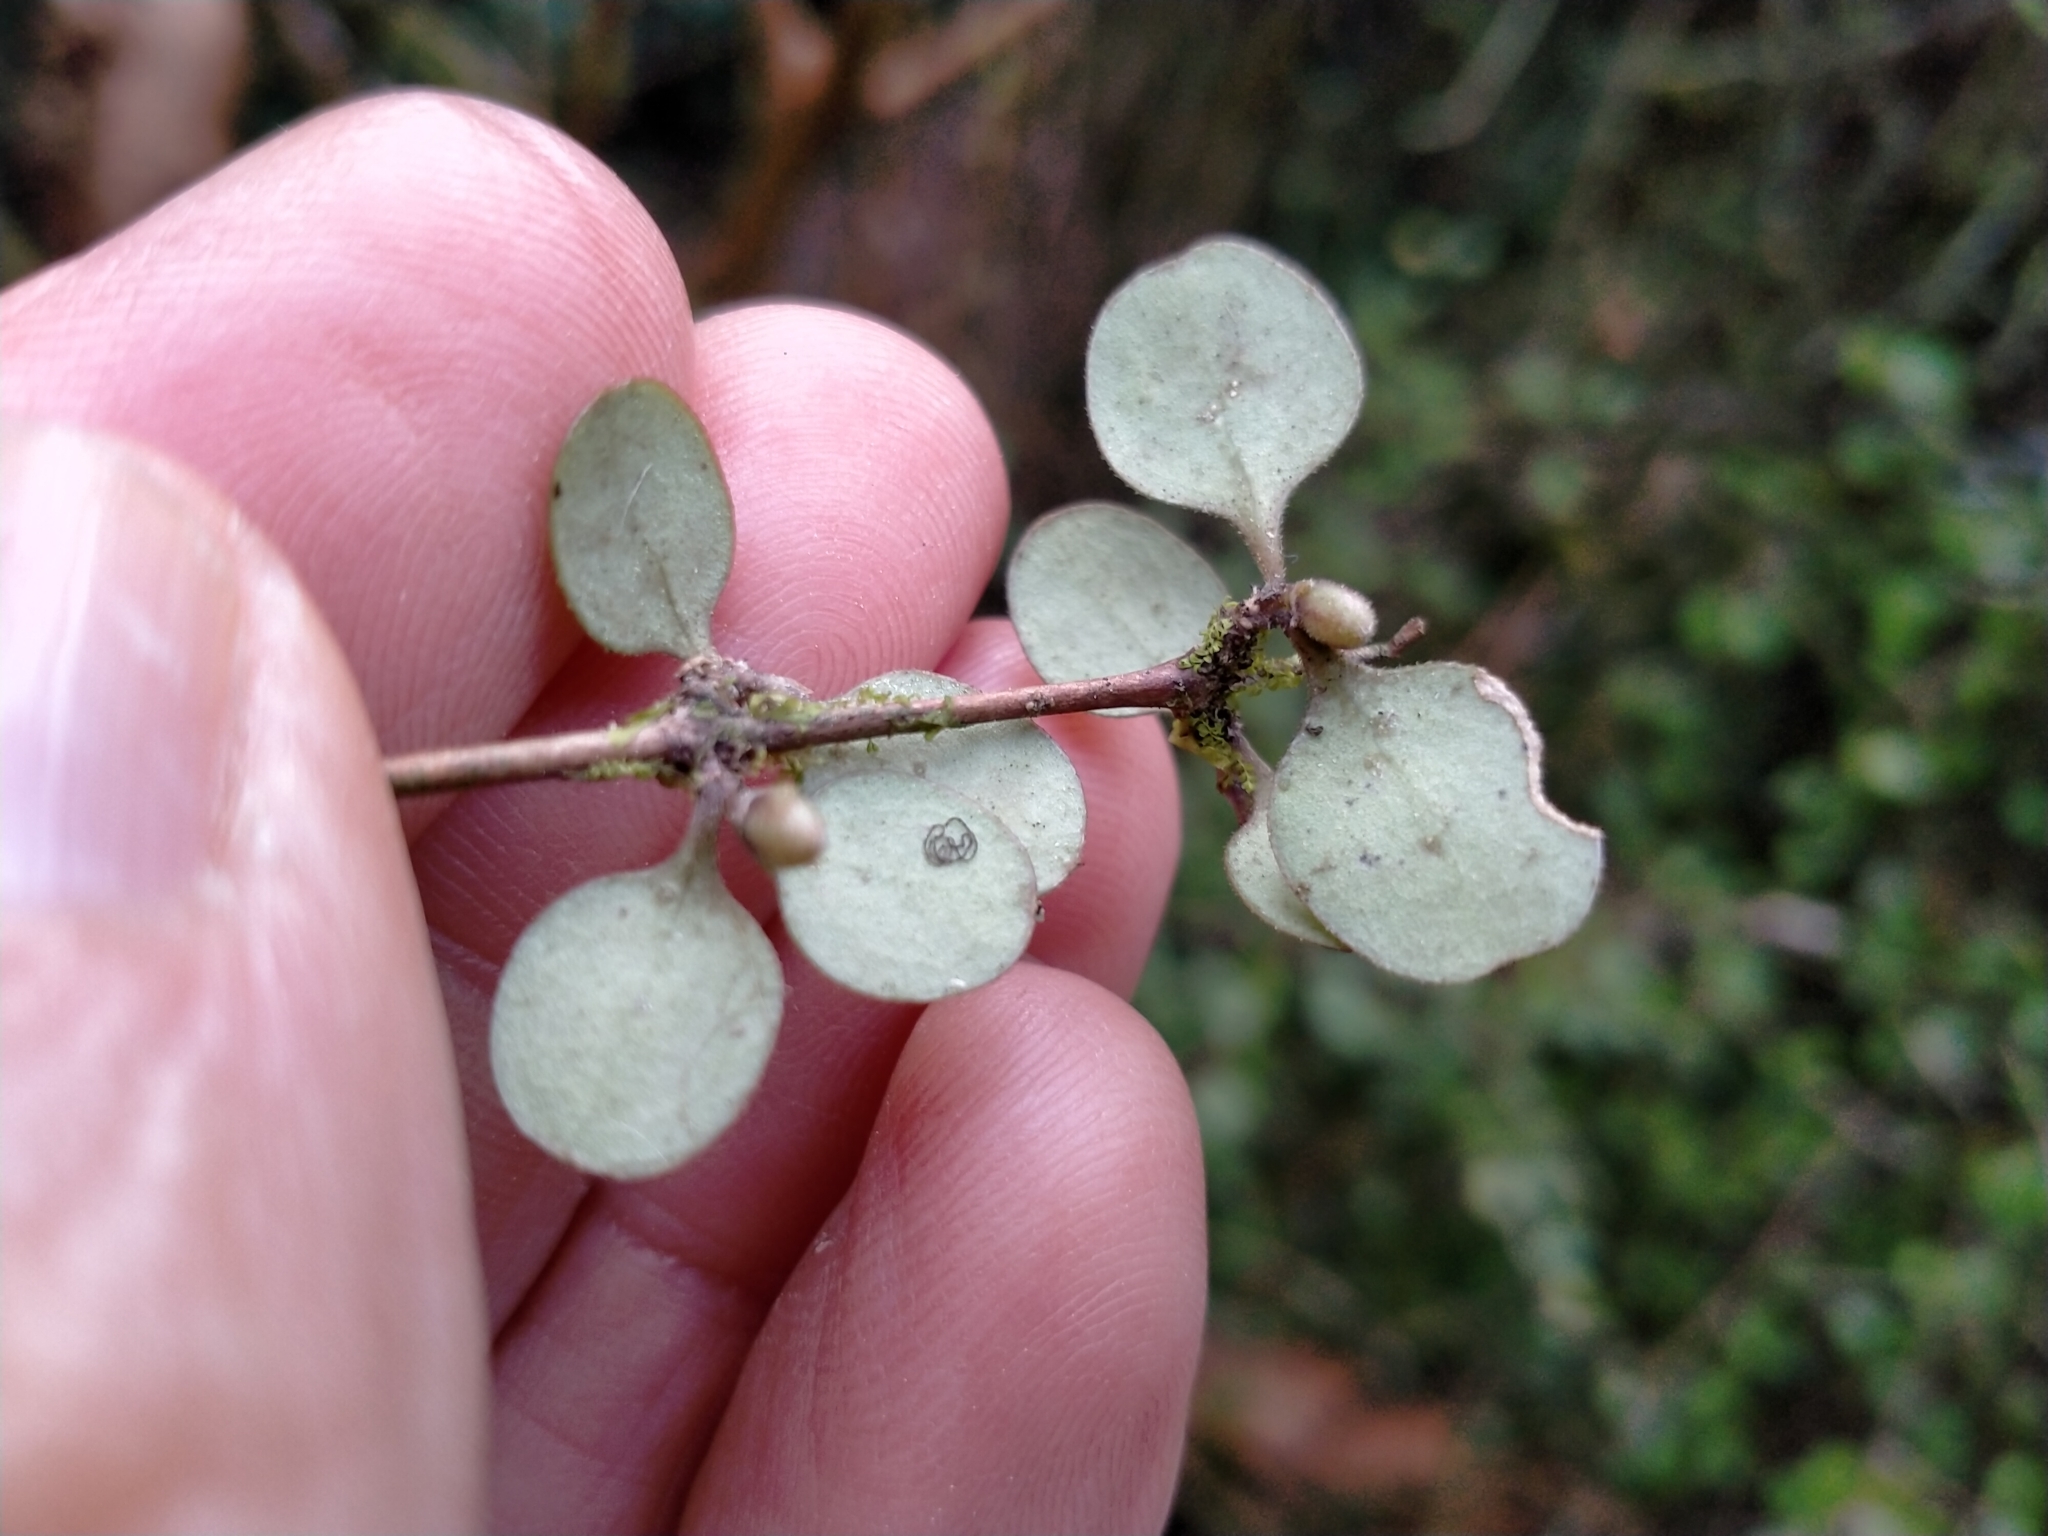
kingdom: Plantae
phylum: Tracheophyta
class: Magnoliopsida
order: Gentianales
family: Rubiaceae
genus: Coprosma
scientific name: Coprosma crassifolia
